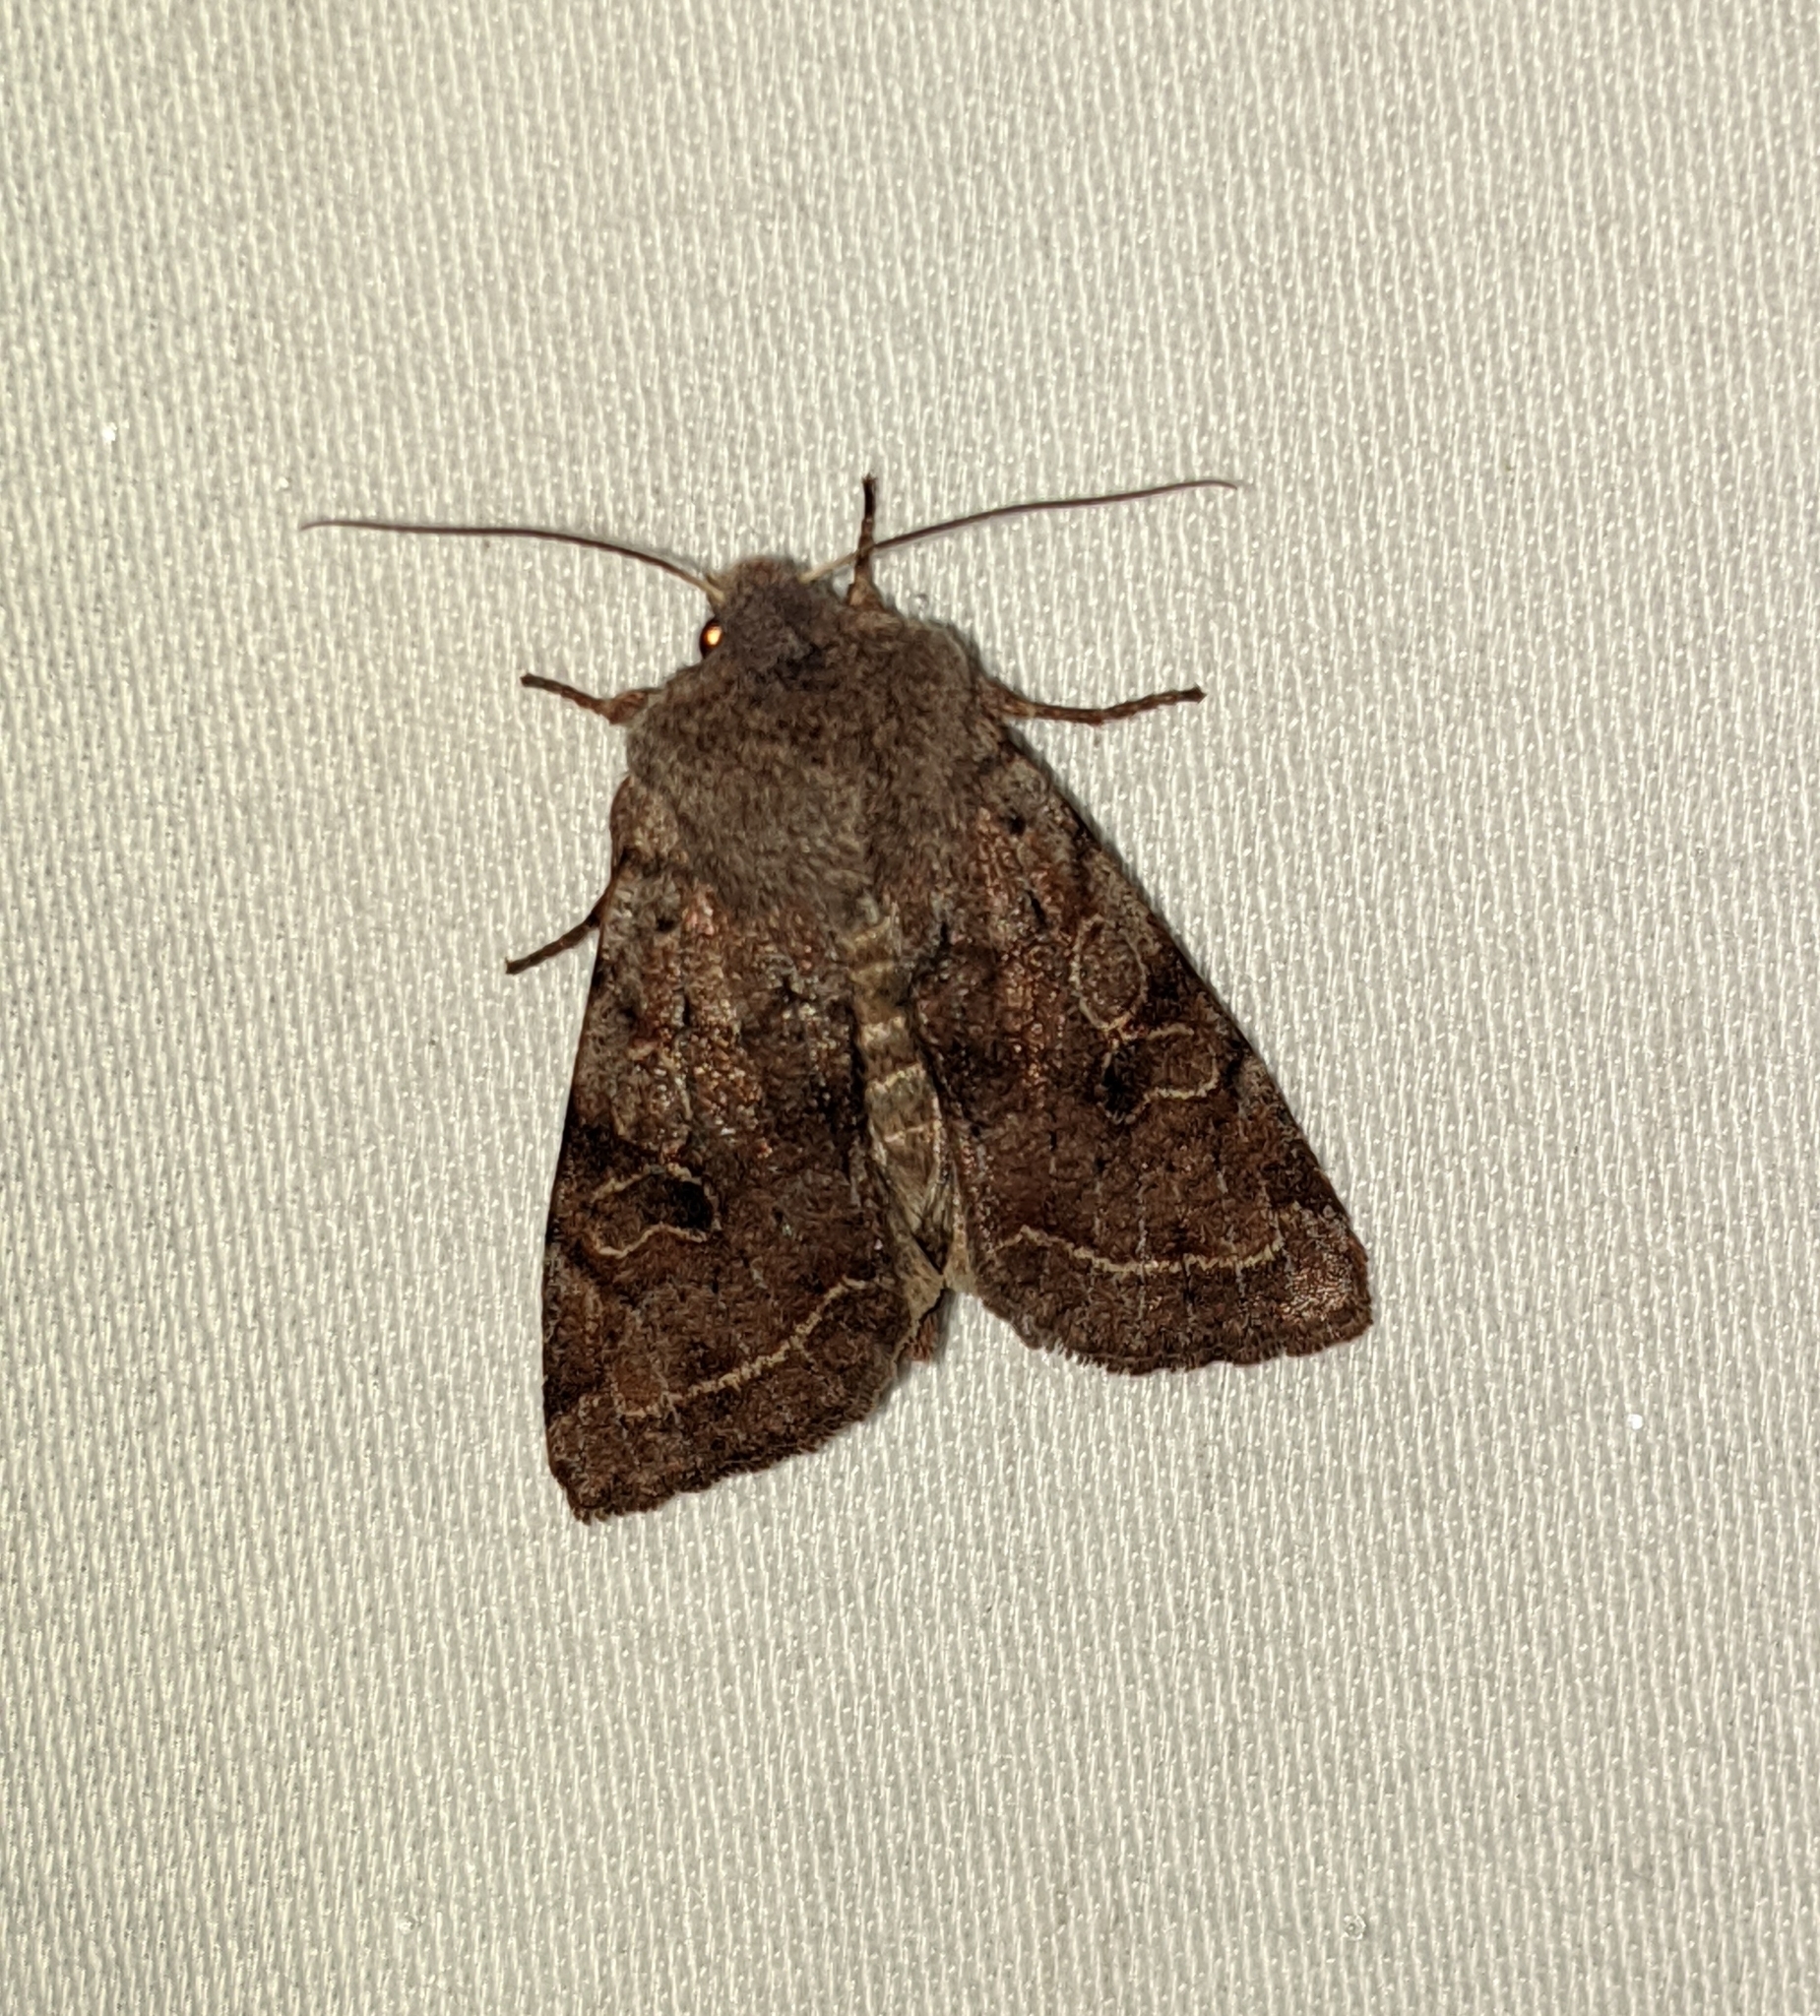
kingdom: Animalia
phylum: Arthropoda
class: Insecta
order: Lepidoptera
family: Noctuidae
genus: Orthosia
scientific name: Orthosia hibisci
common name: Green fruitworm
